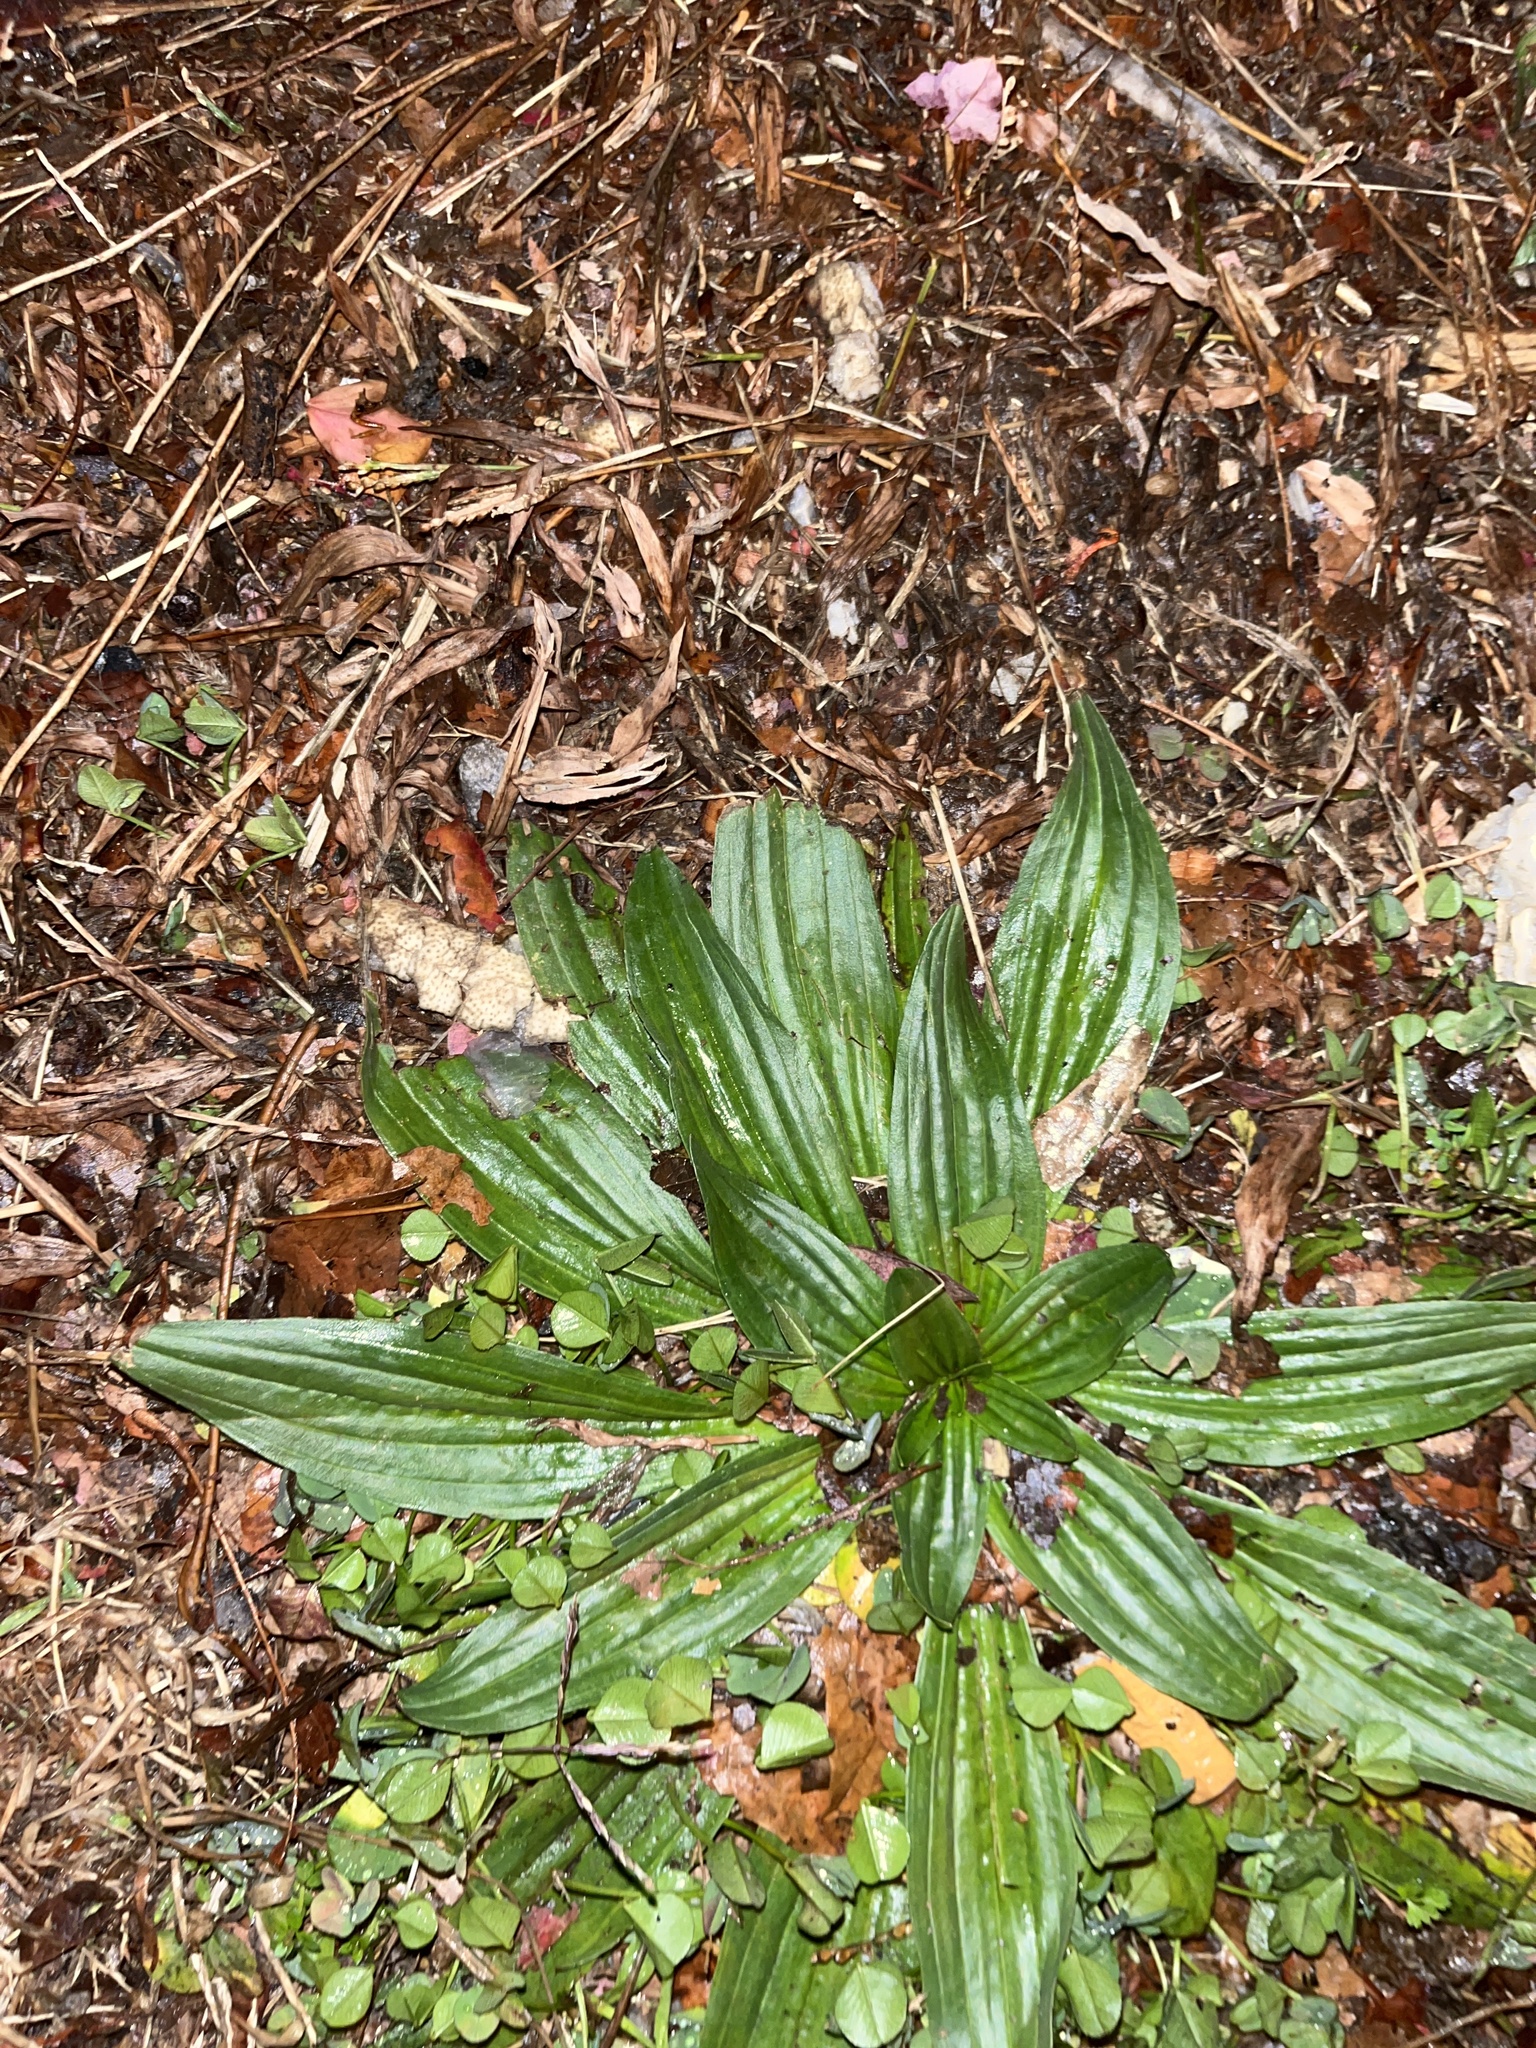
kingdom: Plantae
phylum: Tracheophyta
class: Magnoliopsida
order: Lamiales
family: Plantaginaceae
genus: Plantago
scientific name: Plantago lanceolata
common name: Ribwort plantain
